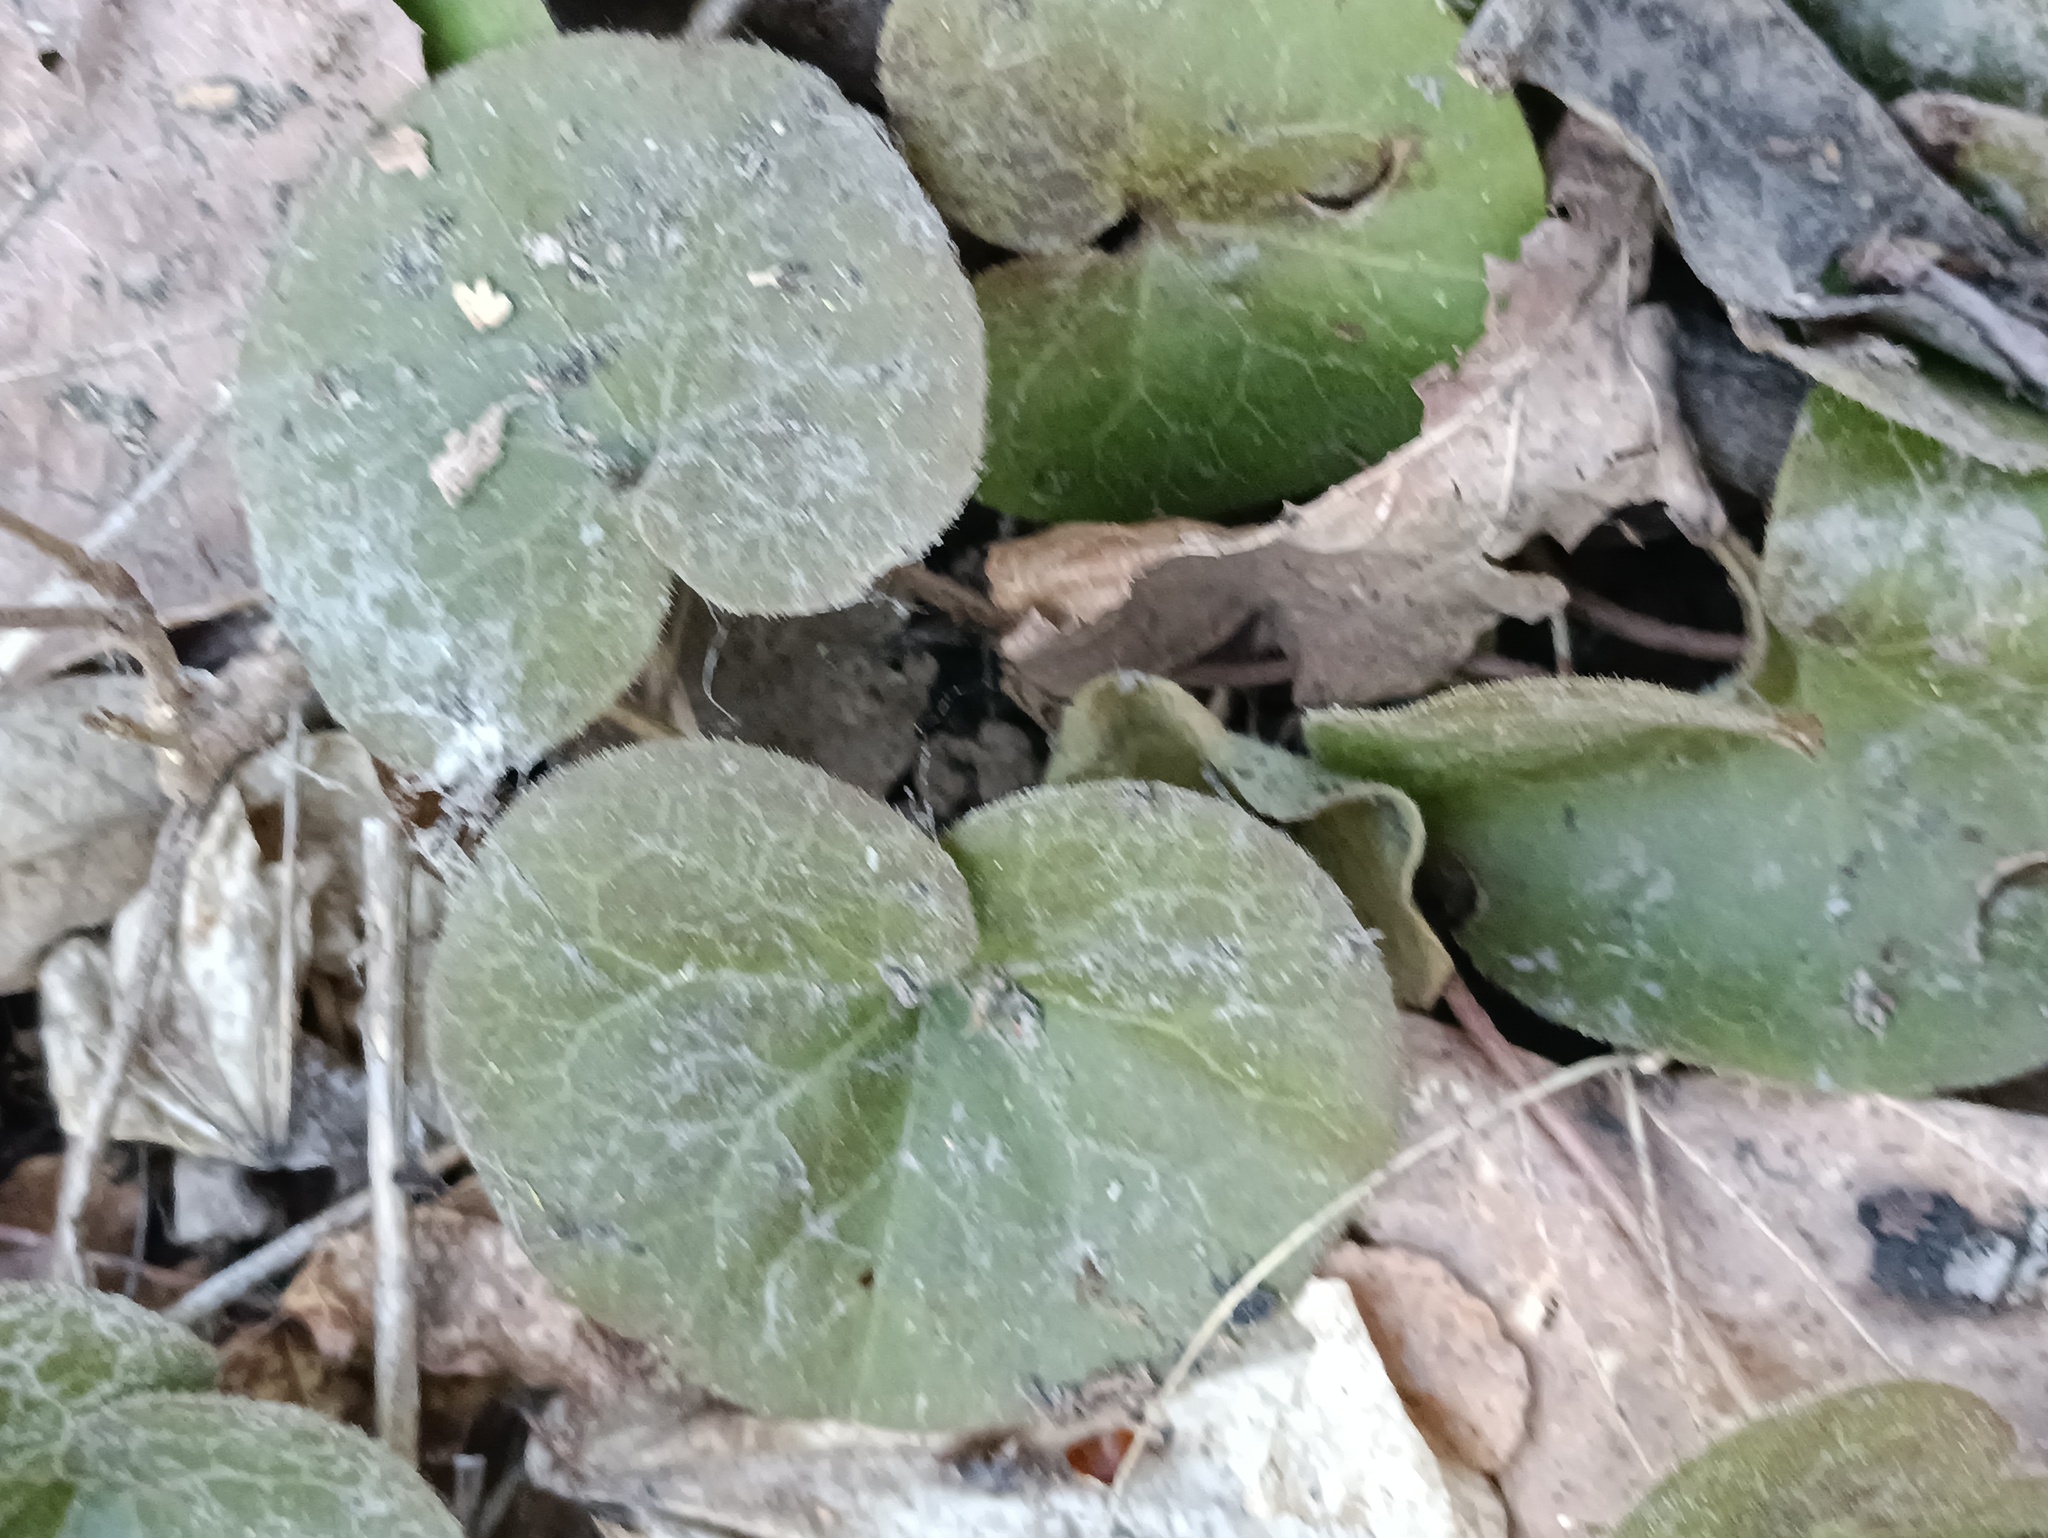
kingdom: Plantae
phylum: Tracheophyta
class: Magnoliopsida
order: Piperales
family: Aristolochiaceae
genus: Asarum
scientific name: Asarum europaeum
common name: Asarabacca
